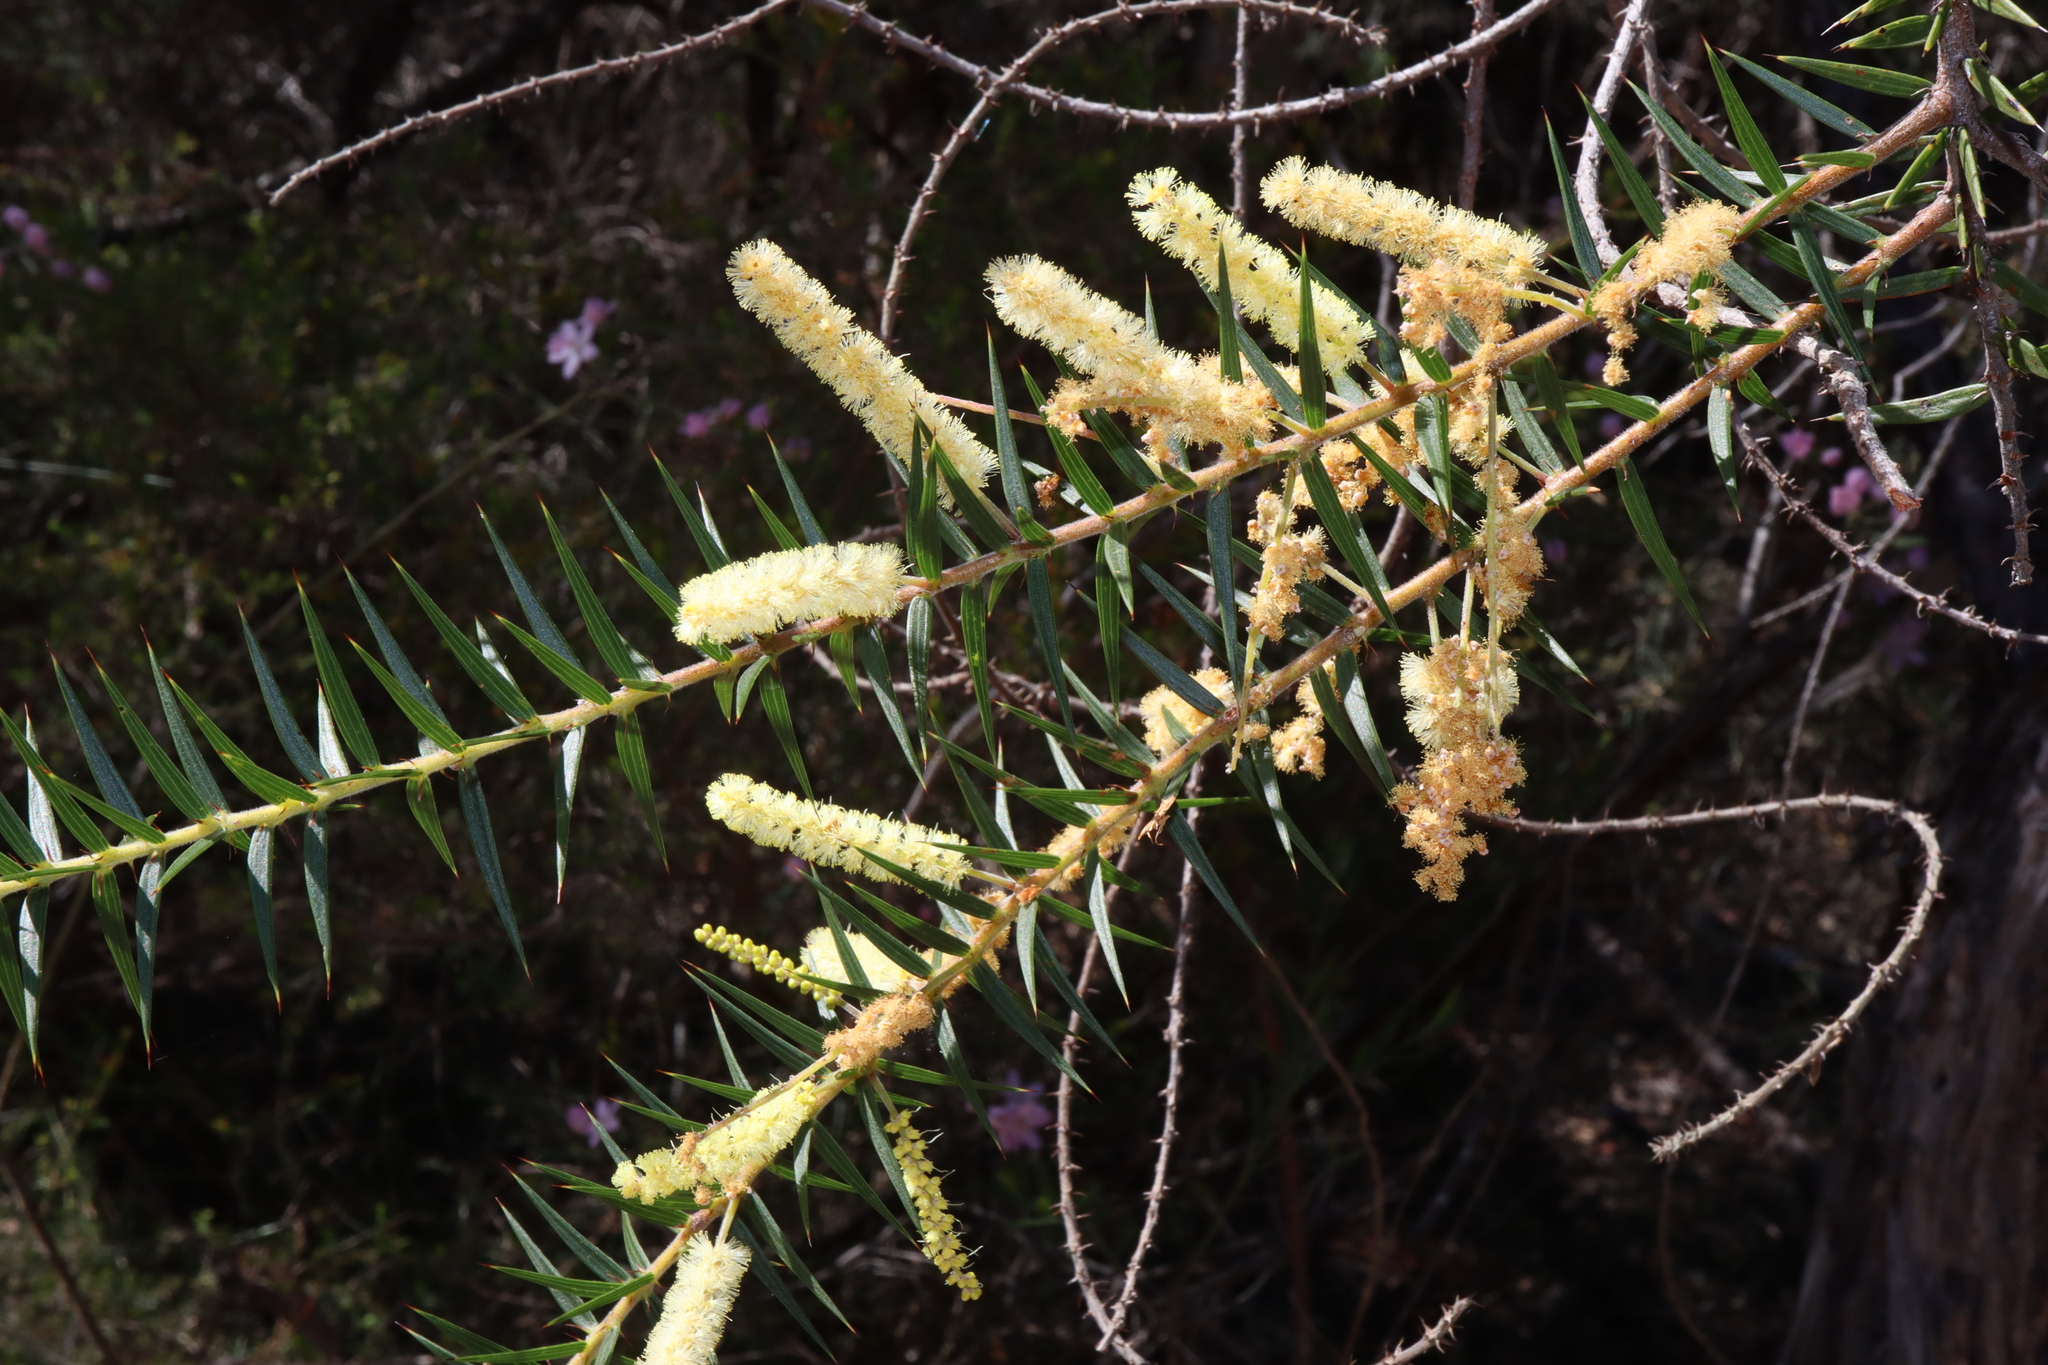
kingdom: Plantae
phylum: Tracheophyta
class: Magnoliopsida
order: Fabales
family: Fabaceae
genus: Acacia
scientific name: Acacia oxycedrus
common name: Spike wattle
